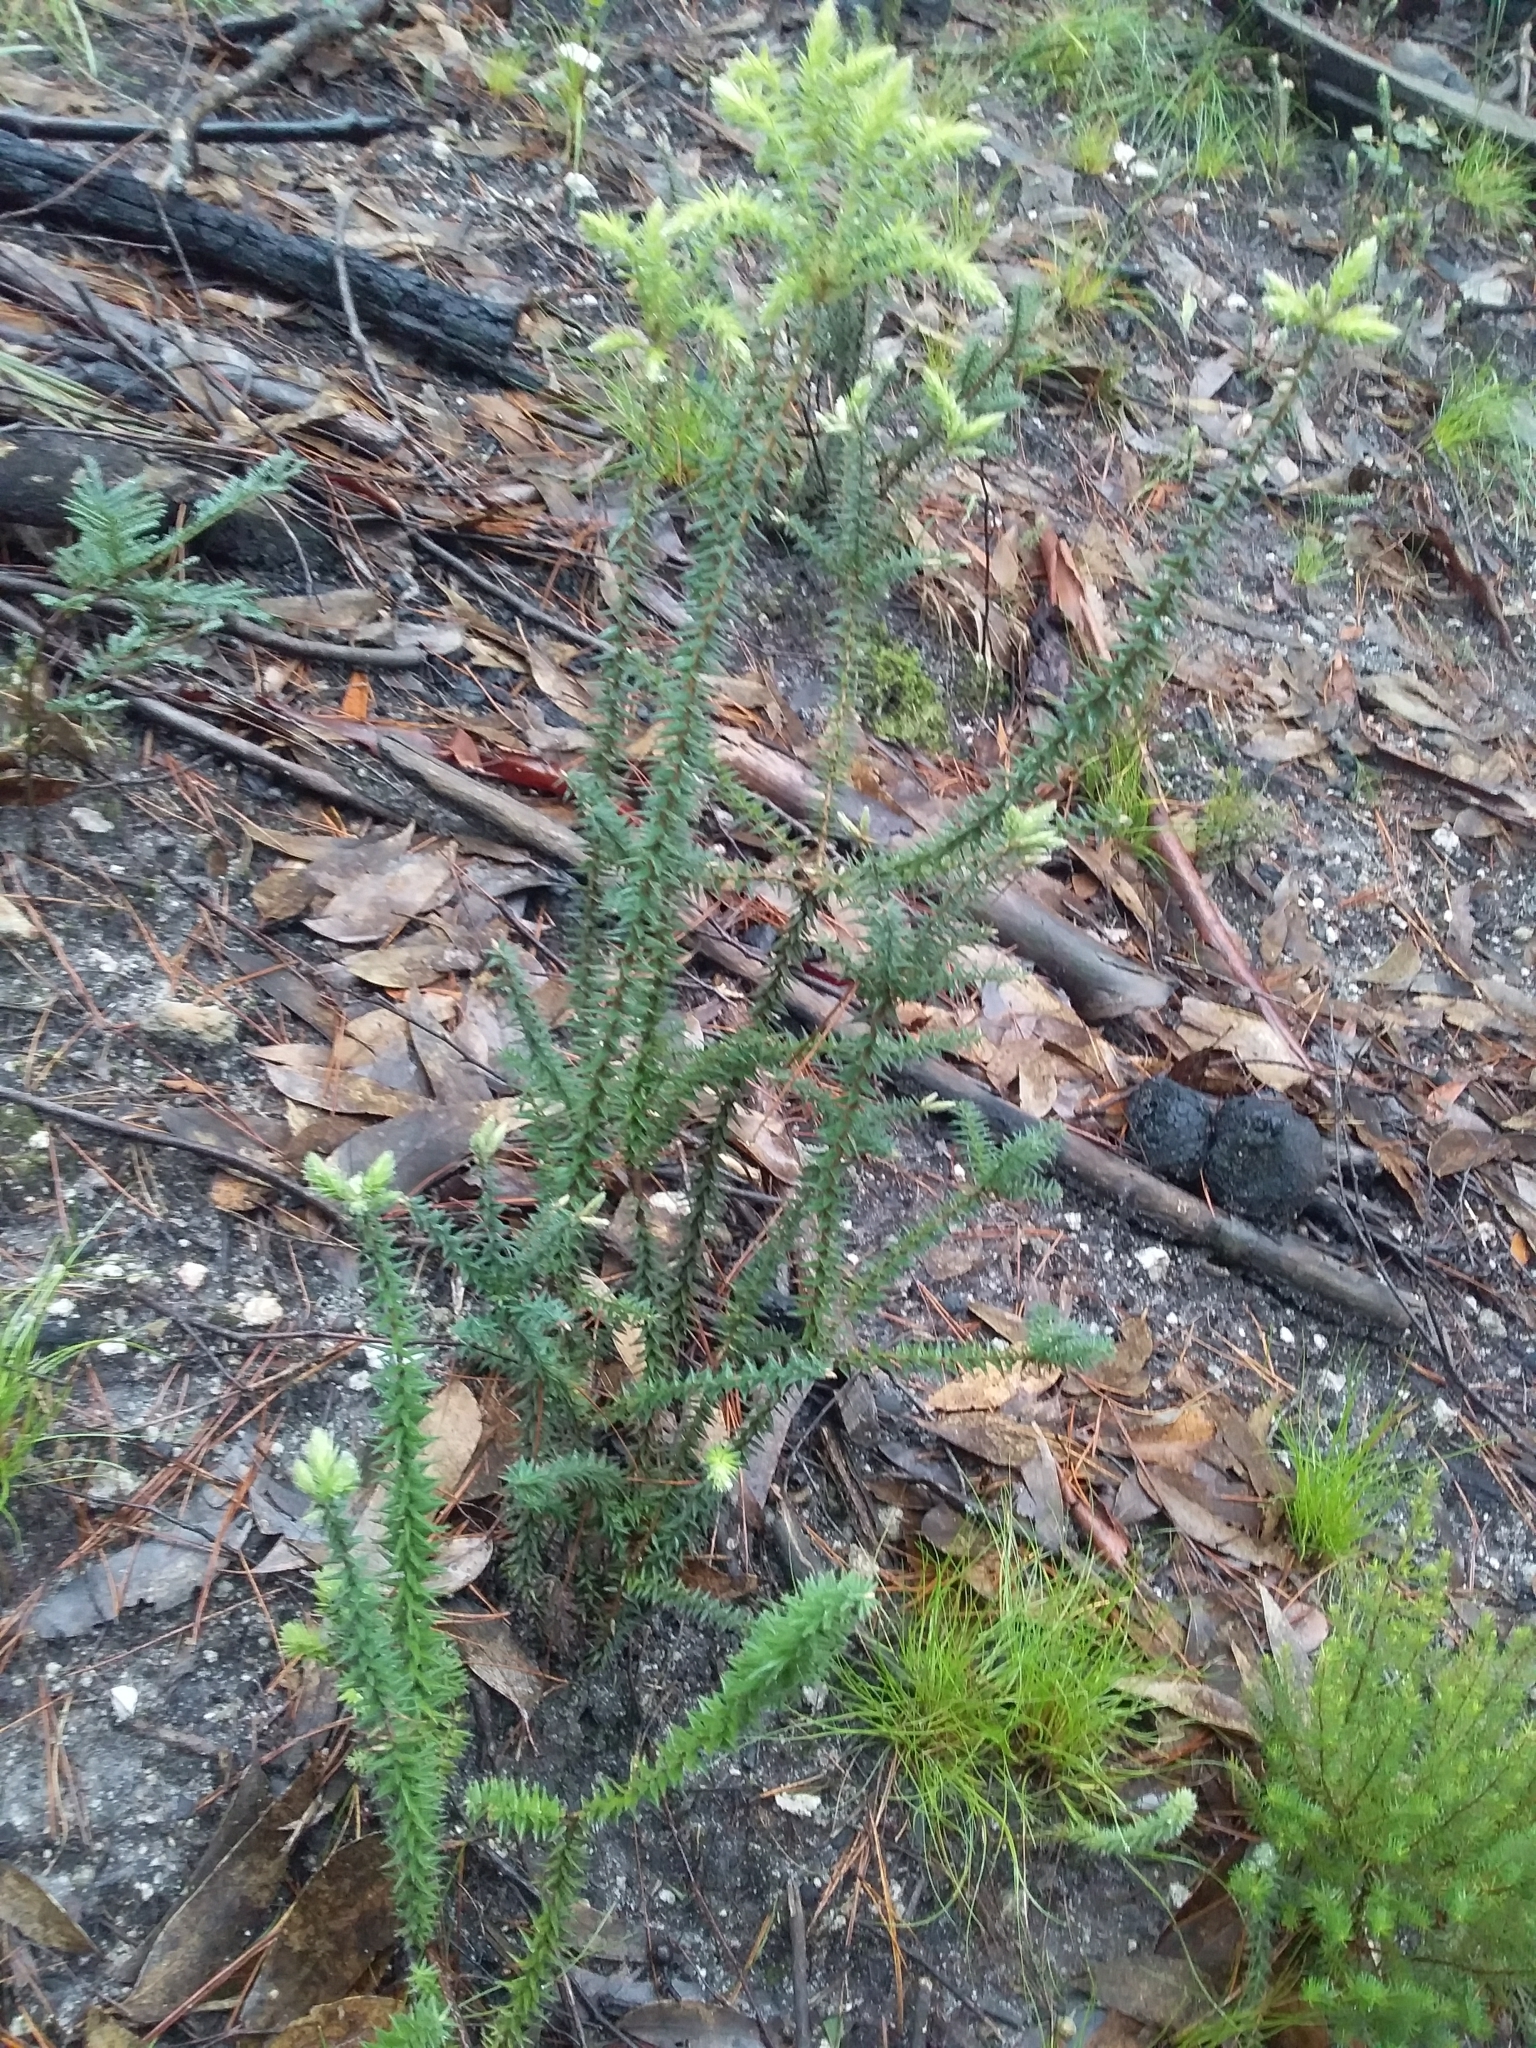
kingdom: Plantae
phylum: Tracheophyta
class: Magnoliopsida
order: Ericales
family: Ericaceae
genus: Acrotriche
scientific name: Acrotriche fasciculiflora
